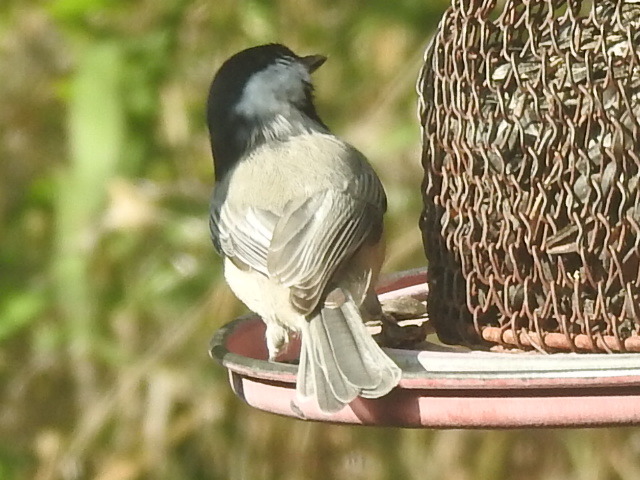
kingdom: Animalia
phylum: Chordata
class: Aves
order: Passeriformes
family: Paridae
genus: Poecile
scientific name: Poecile carolinensis
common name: Carolina chickadee
